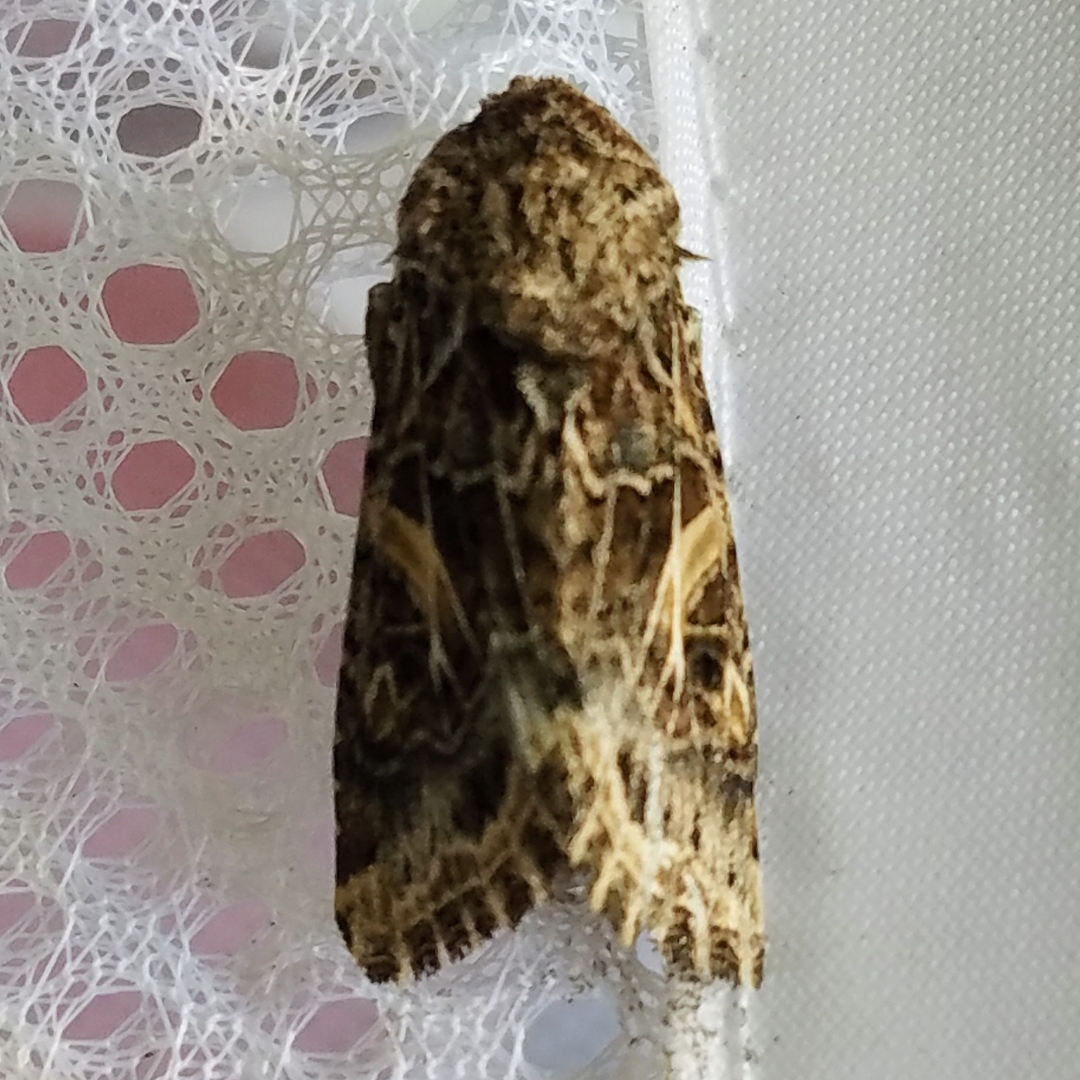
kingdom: Animalia
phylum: Arthropoda
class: Insecta
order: Lepidoptera
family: Noctuidae
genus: Spodoptera
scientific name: Spodoptera praefica
